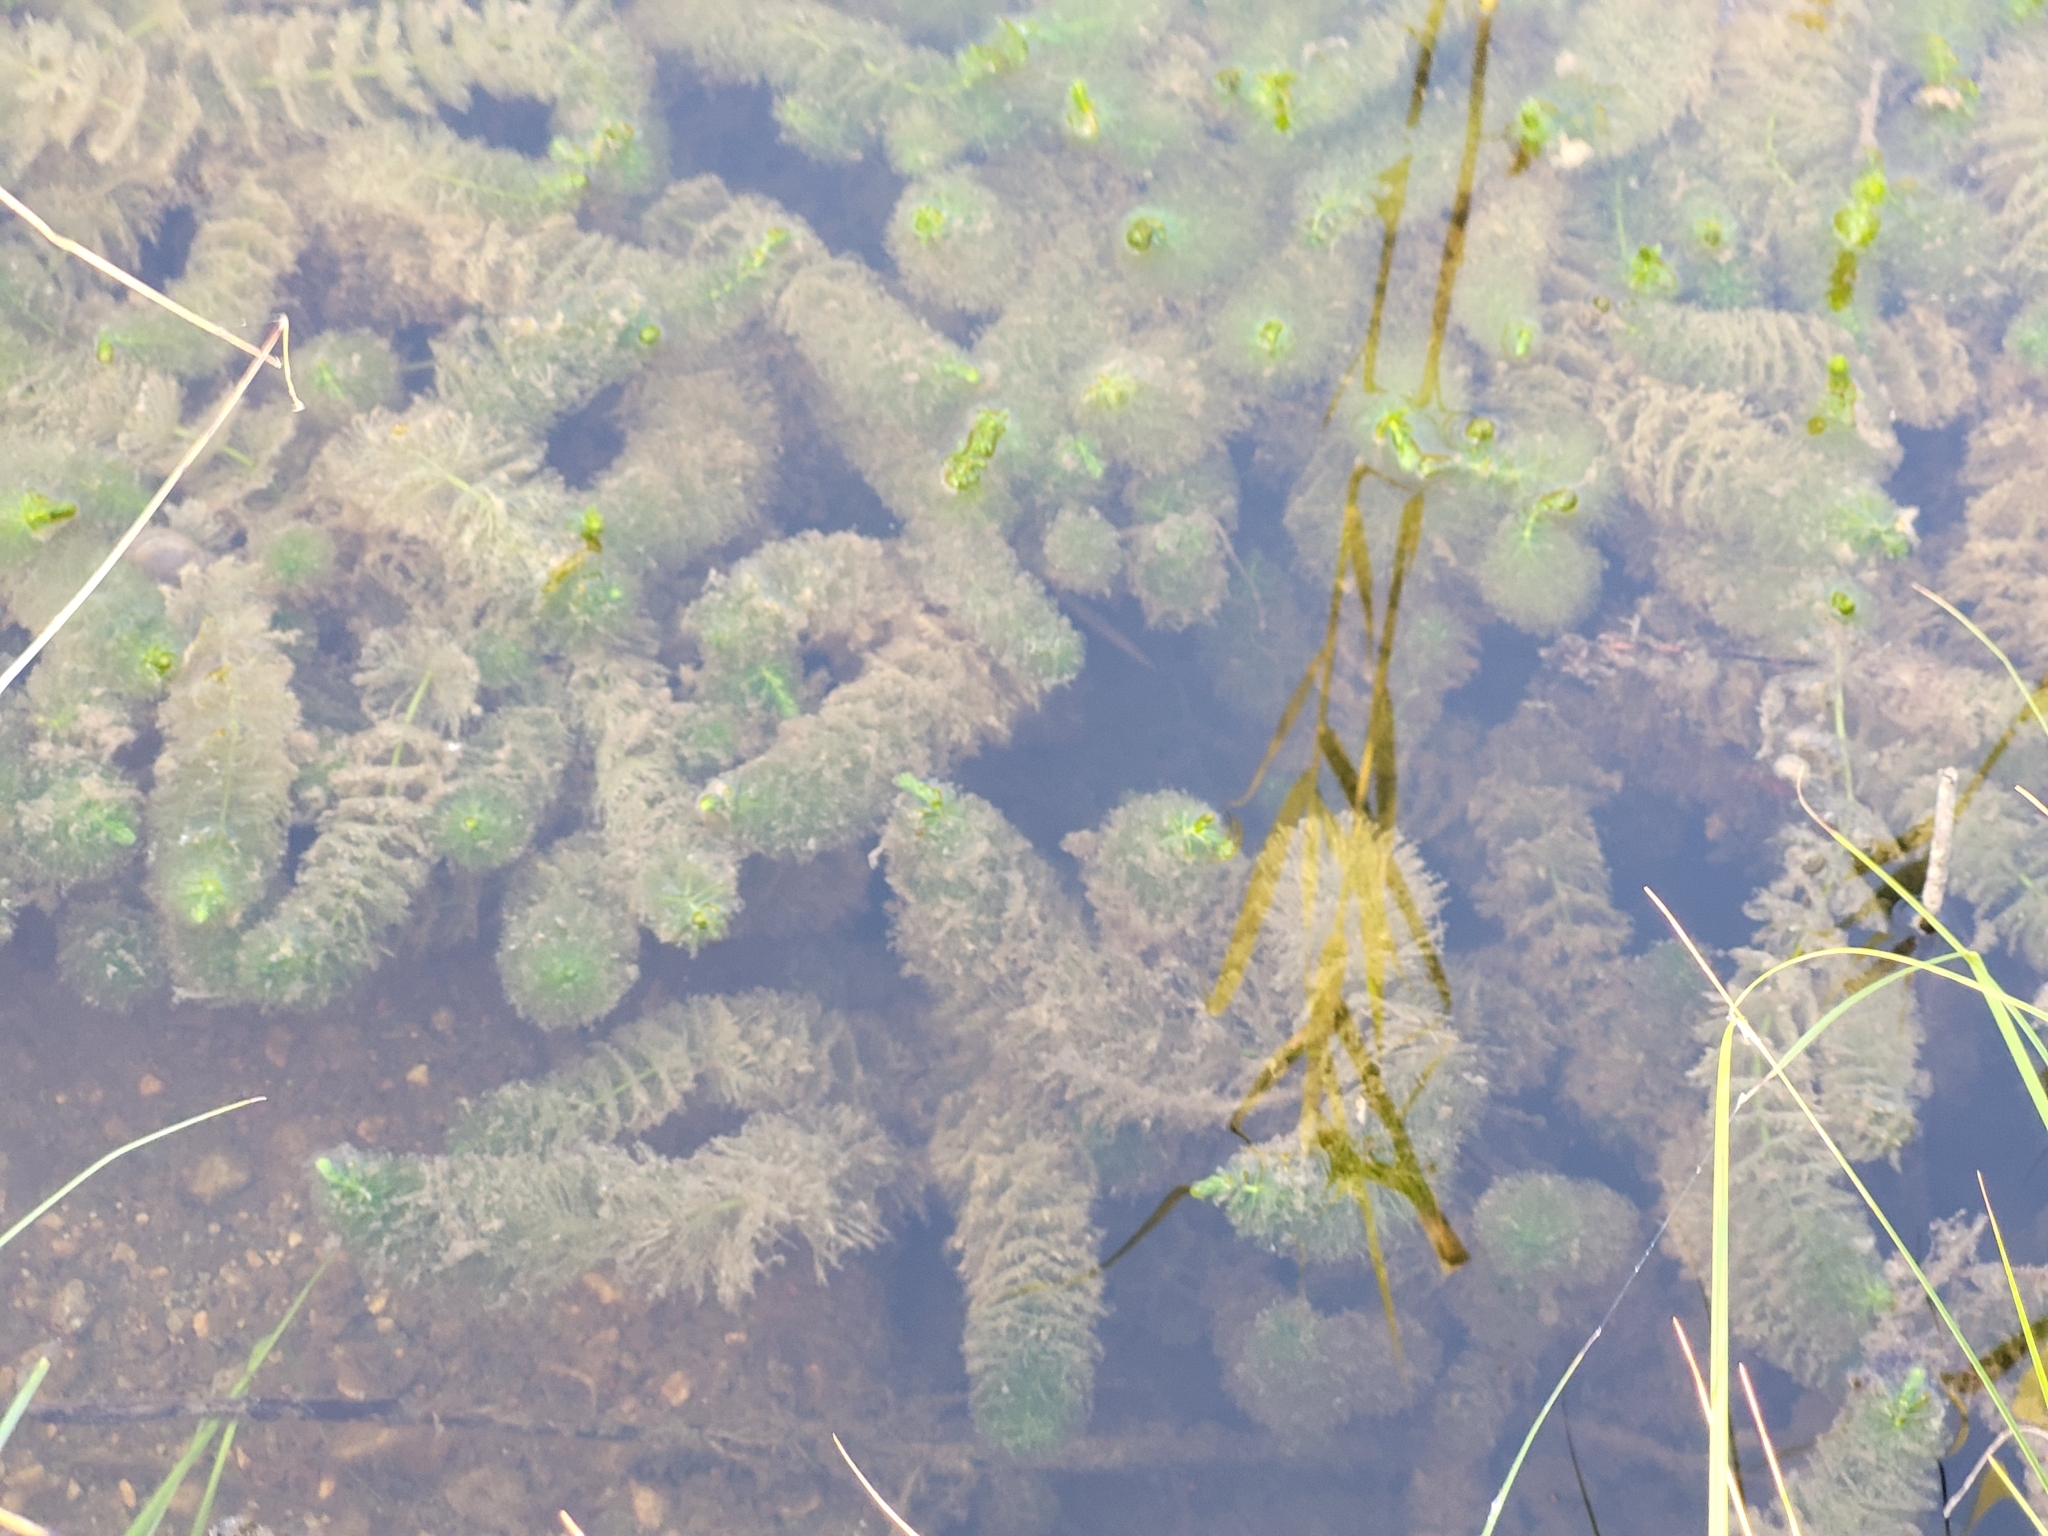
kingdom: Plantae
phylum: Tracheophyta
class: Magnoliopsida
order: Ceratophyllales
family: Ceratophyllaceae
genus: Ceratophyllum
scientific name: Ceratophyllum demersum
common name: Rigid hornwort
